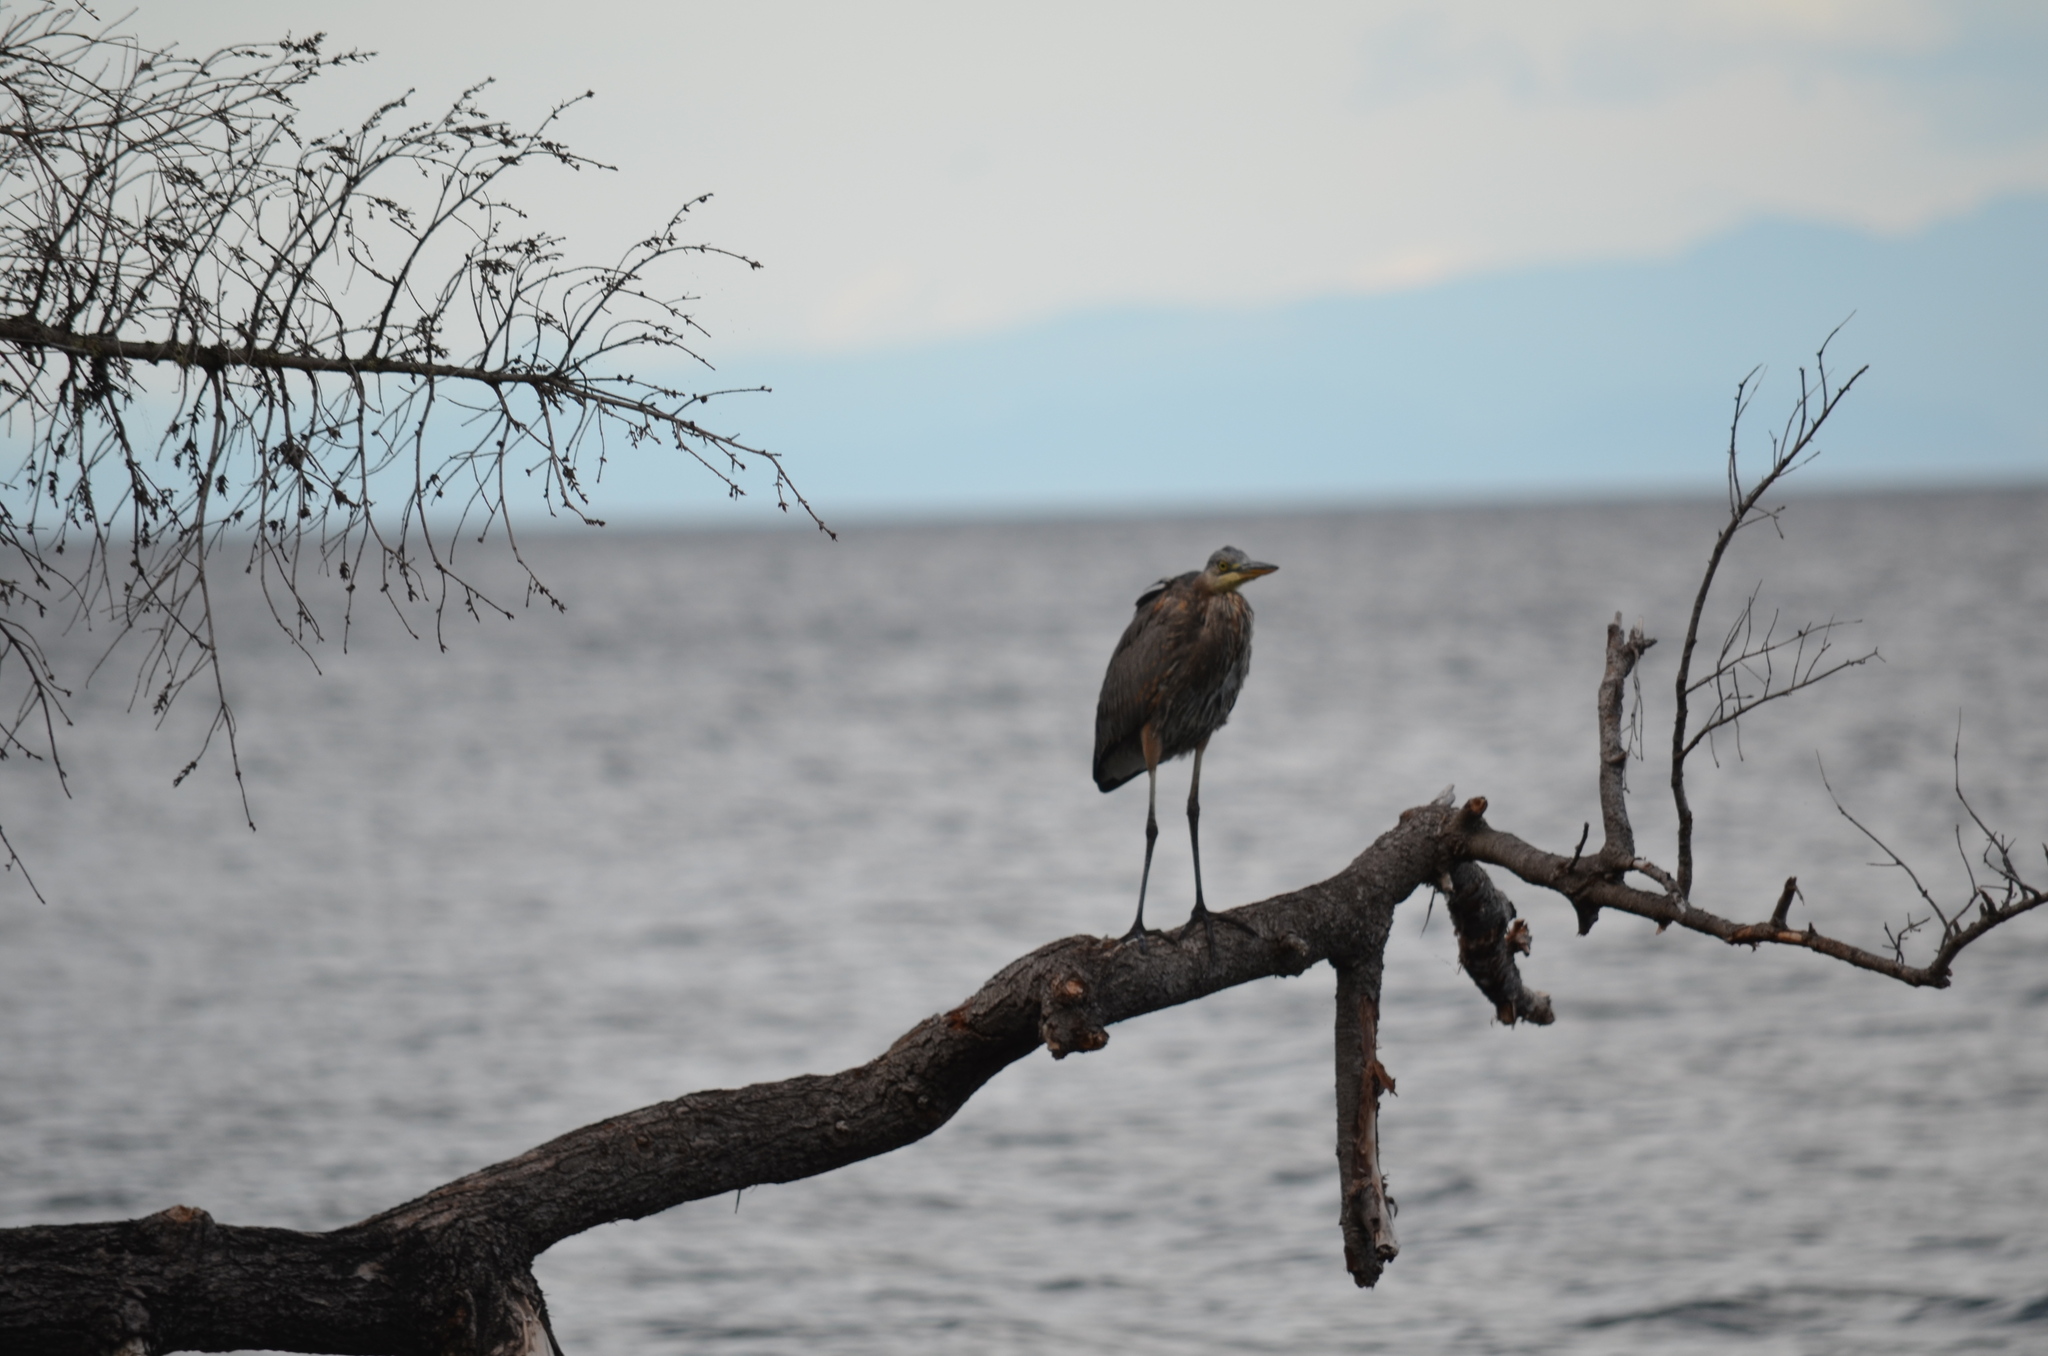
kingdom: Animalia
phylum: Chordata
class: Aves
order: Pelecaniformes
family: Ardeidae
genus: Ardea
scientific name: Ardea herodias
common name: Great blue heron
